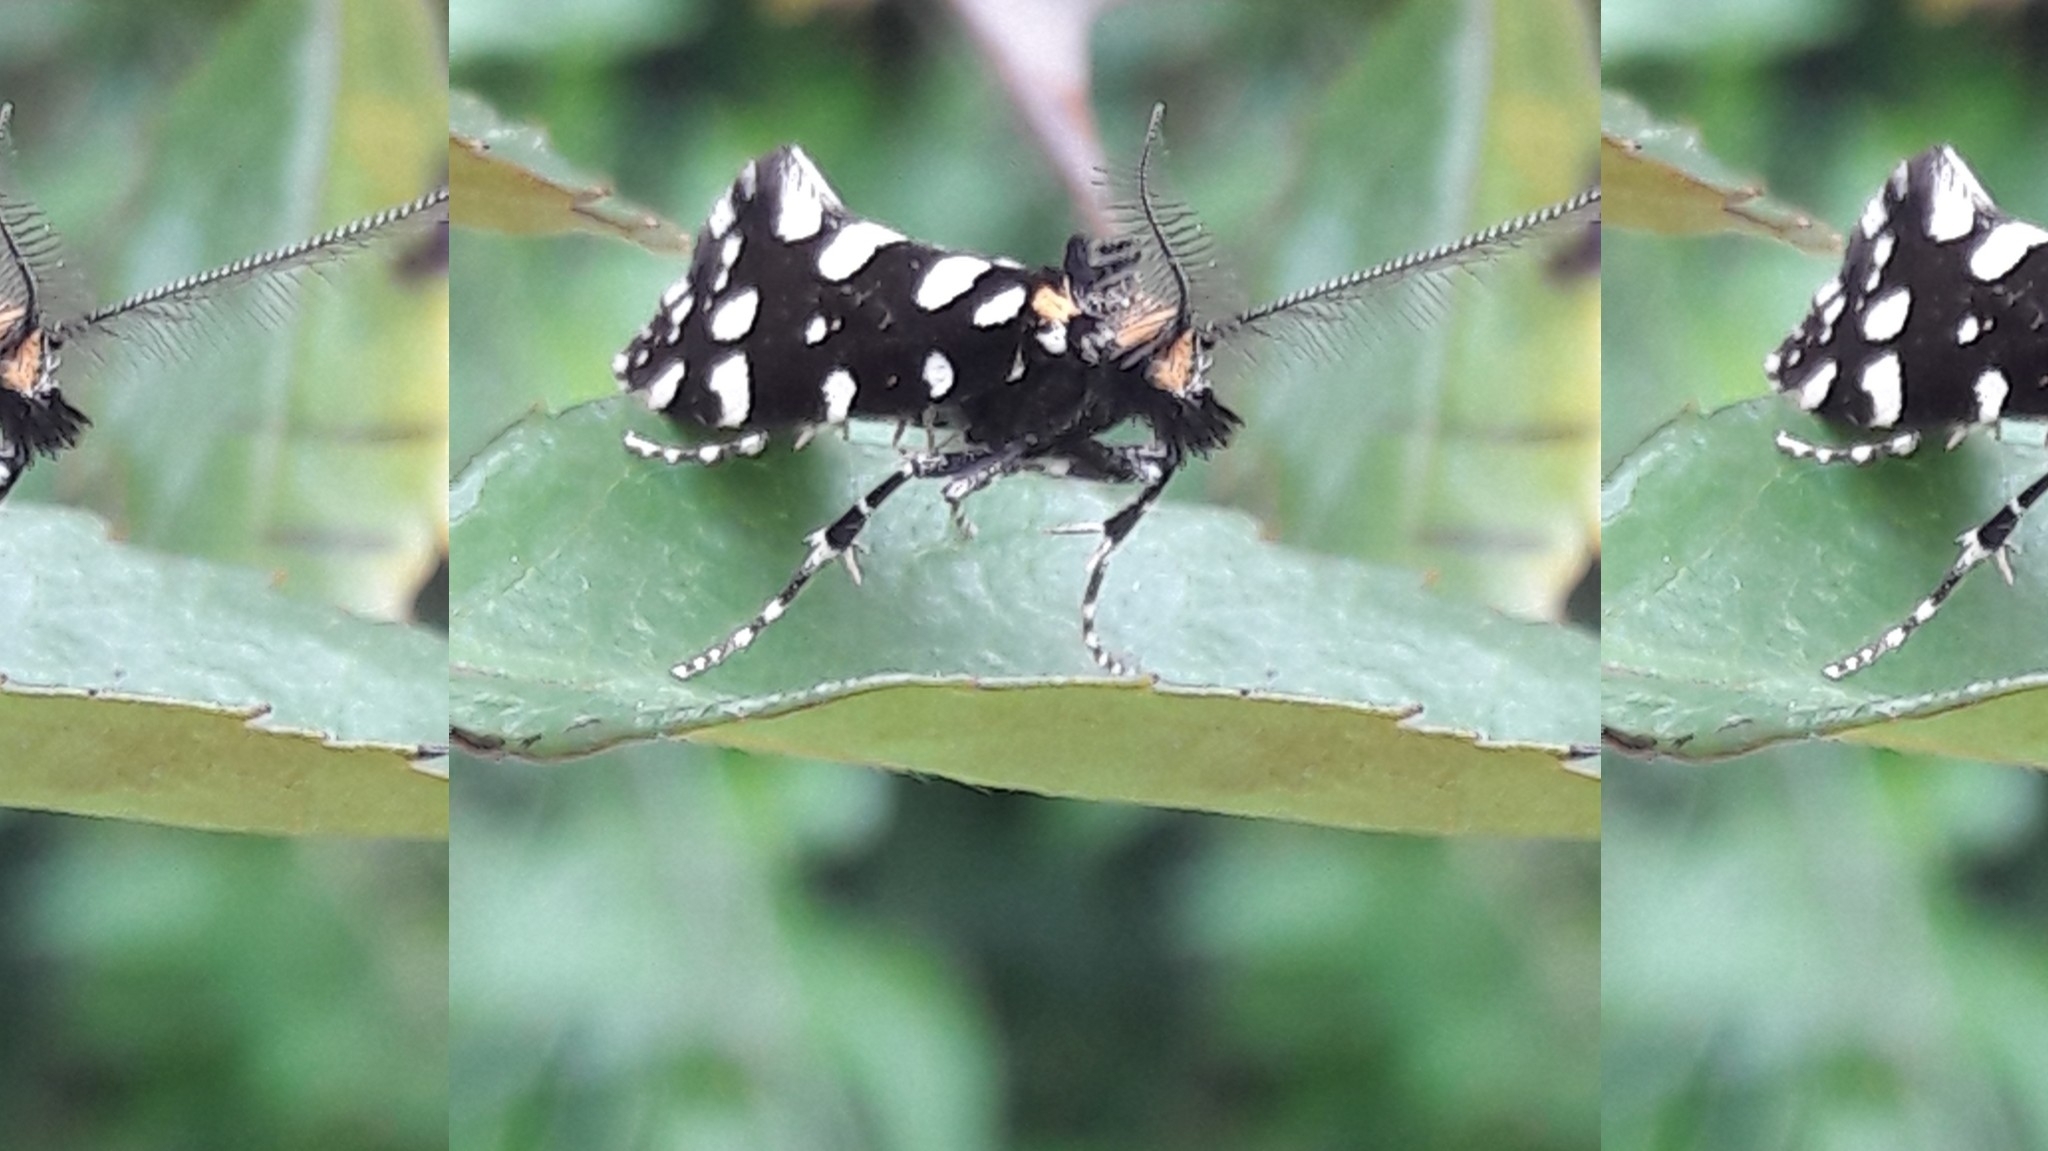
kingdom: Animalia
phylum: Arthropoda
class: Insecta
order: Lepidoptera
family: Tineidae
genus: Euplocamus
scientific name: Euplocamus anthracinalis
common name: Black clothes
